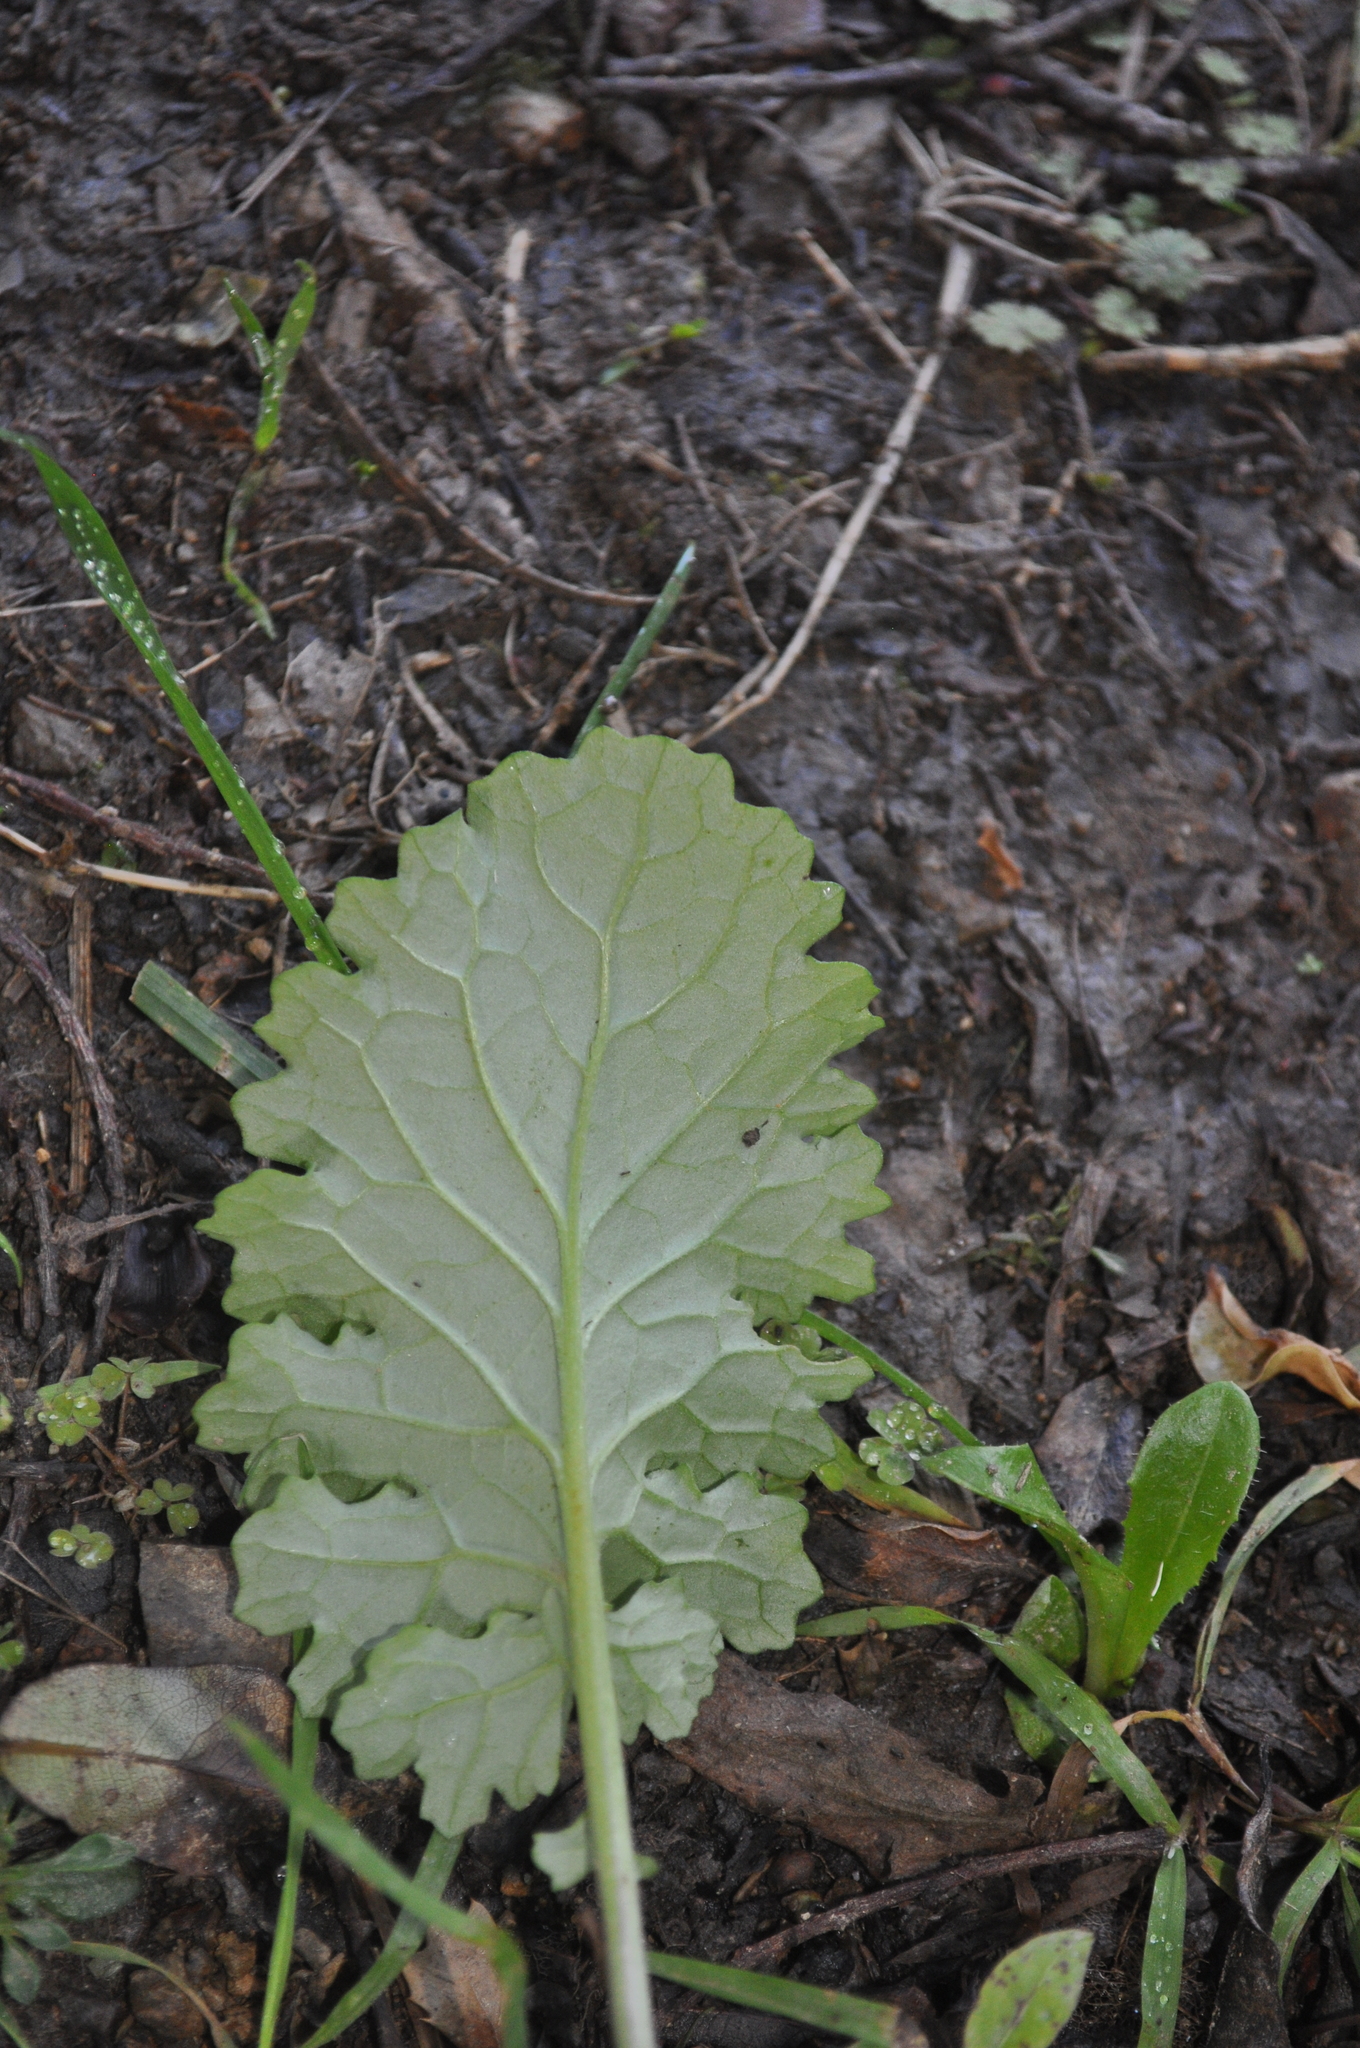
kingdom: Plantae
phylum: Tracheophyta
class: Magnoliopsida
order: Asterales
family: Asteraceae
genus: Jacobaea
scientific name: Jacobaea vulgaris
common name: Stinking willie
